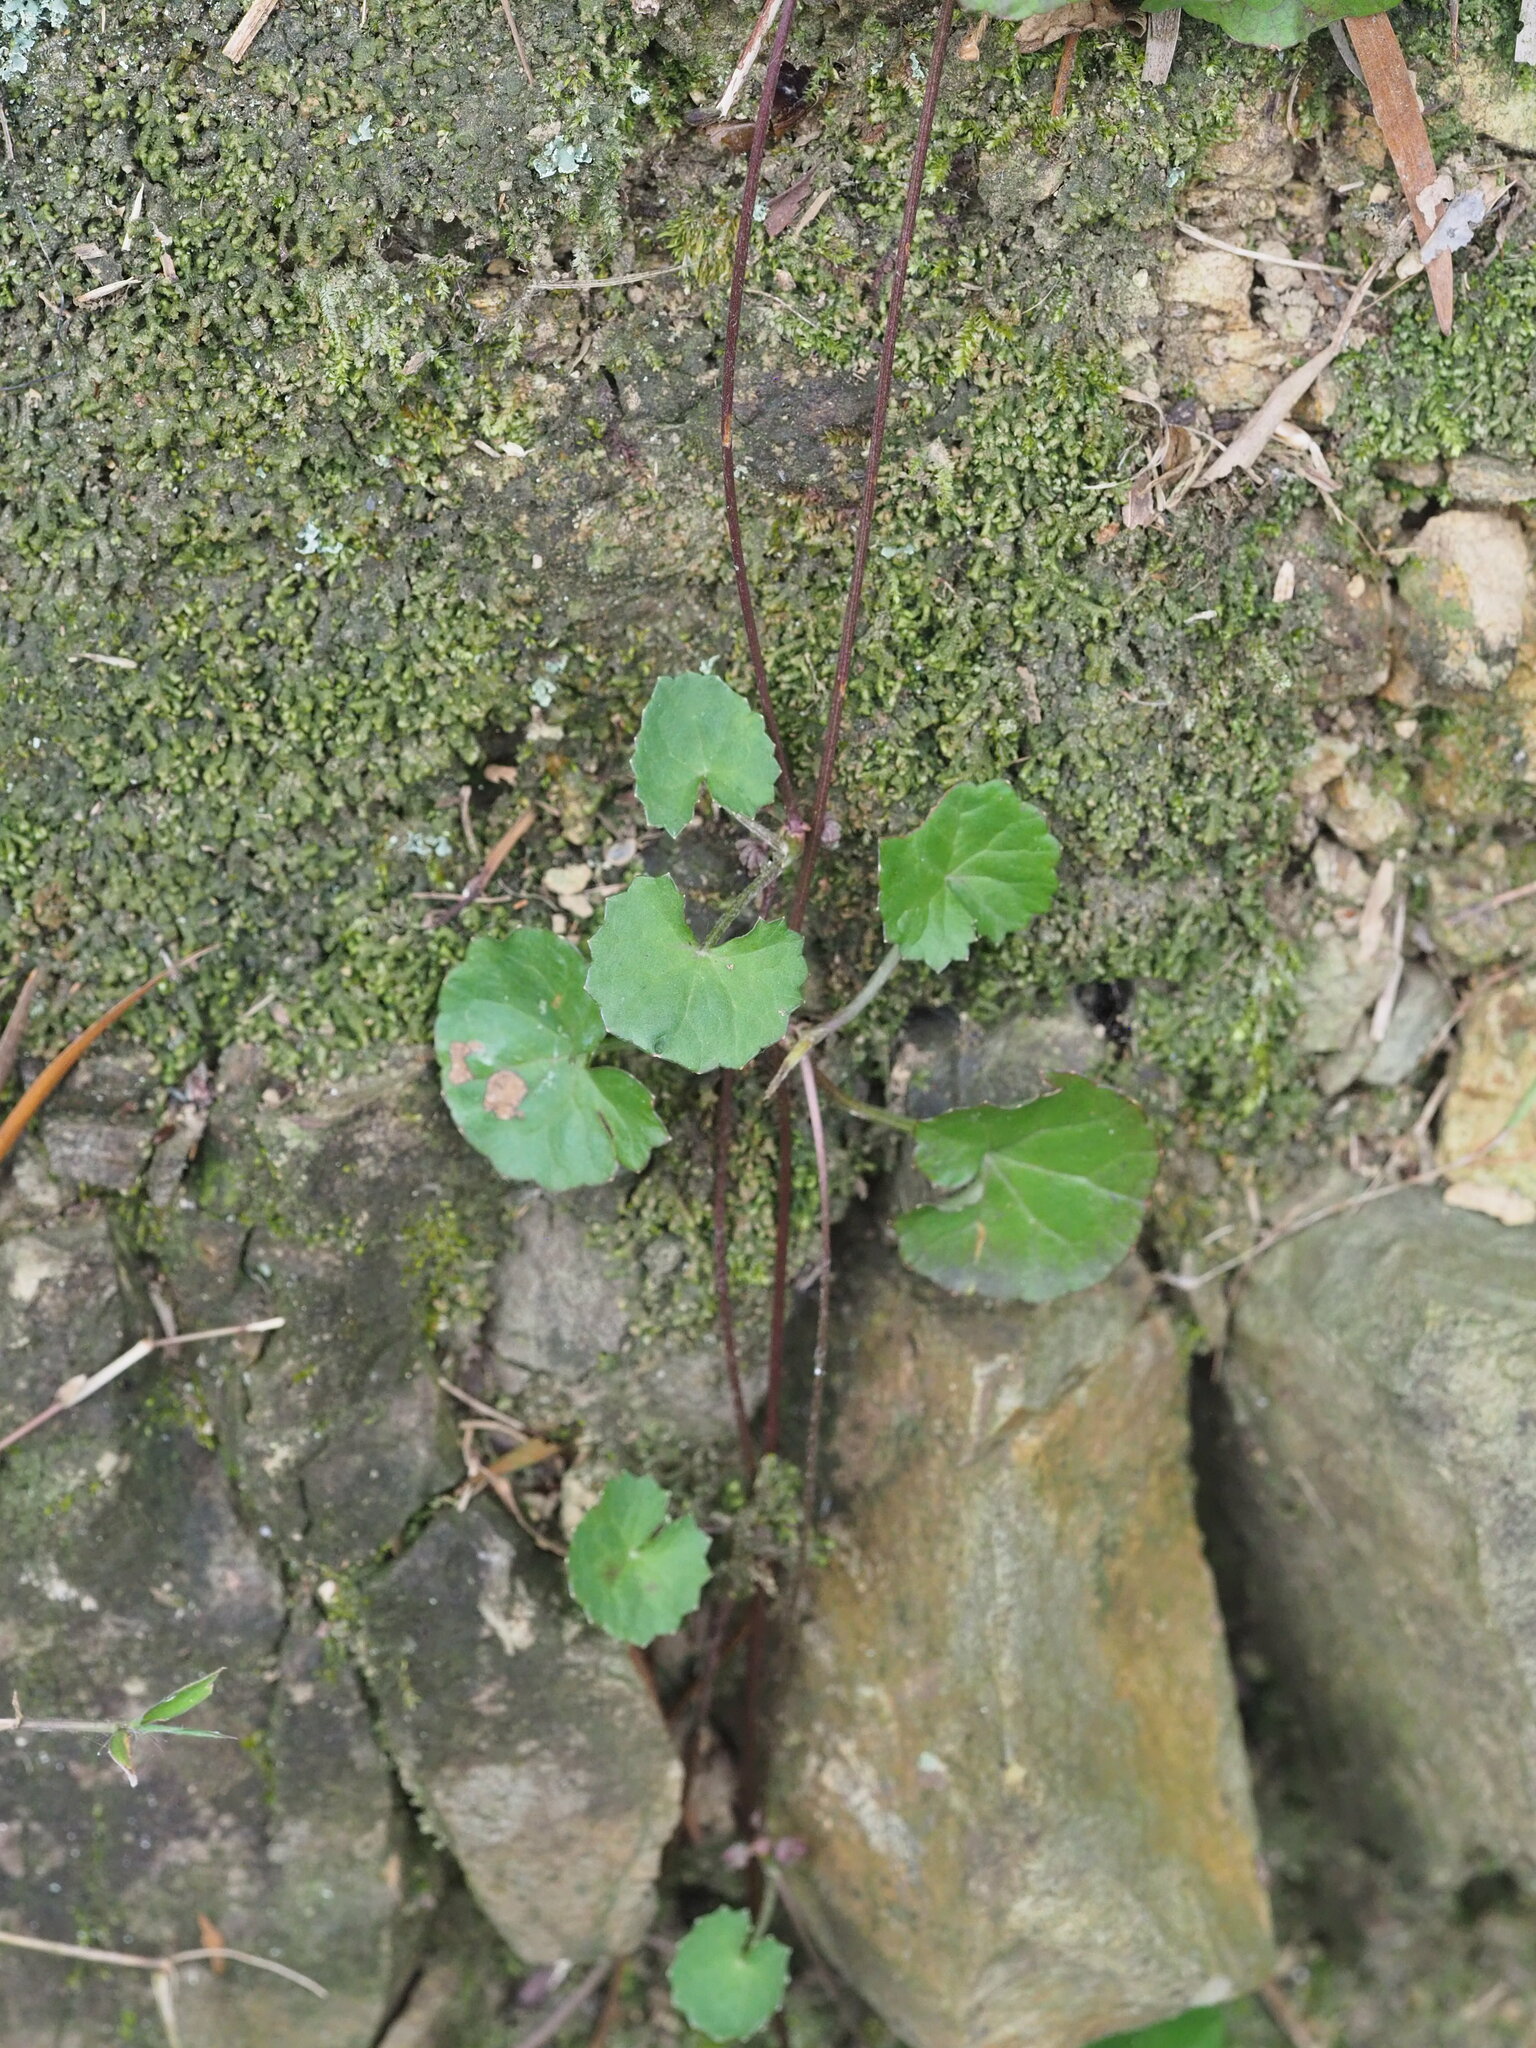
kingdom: Plantae
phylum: Tracheophyta
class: Magnoliopsida
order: Apiales
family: Apiaceae
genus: Centella
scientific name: Centella asiatica
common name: Spadeleaf
